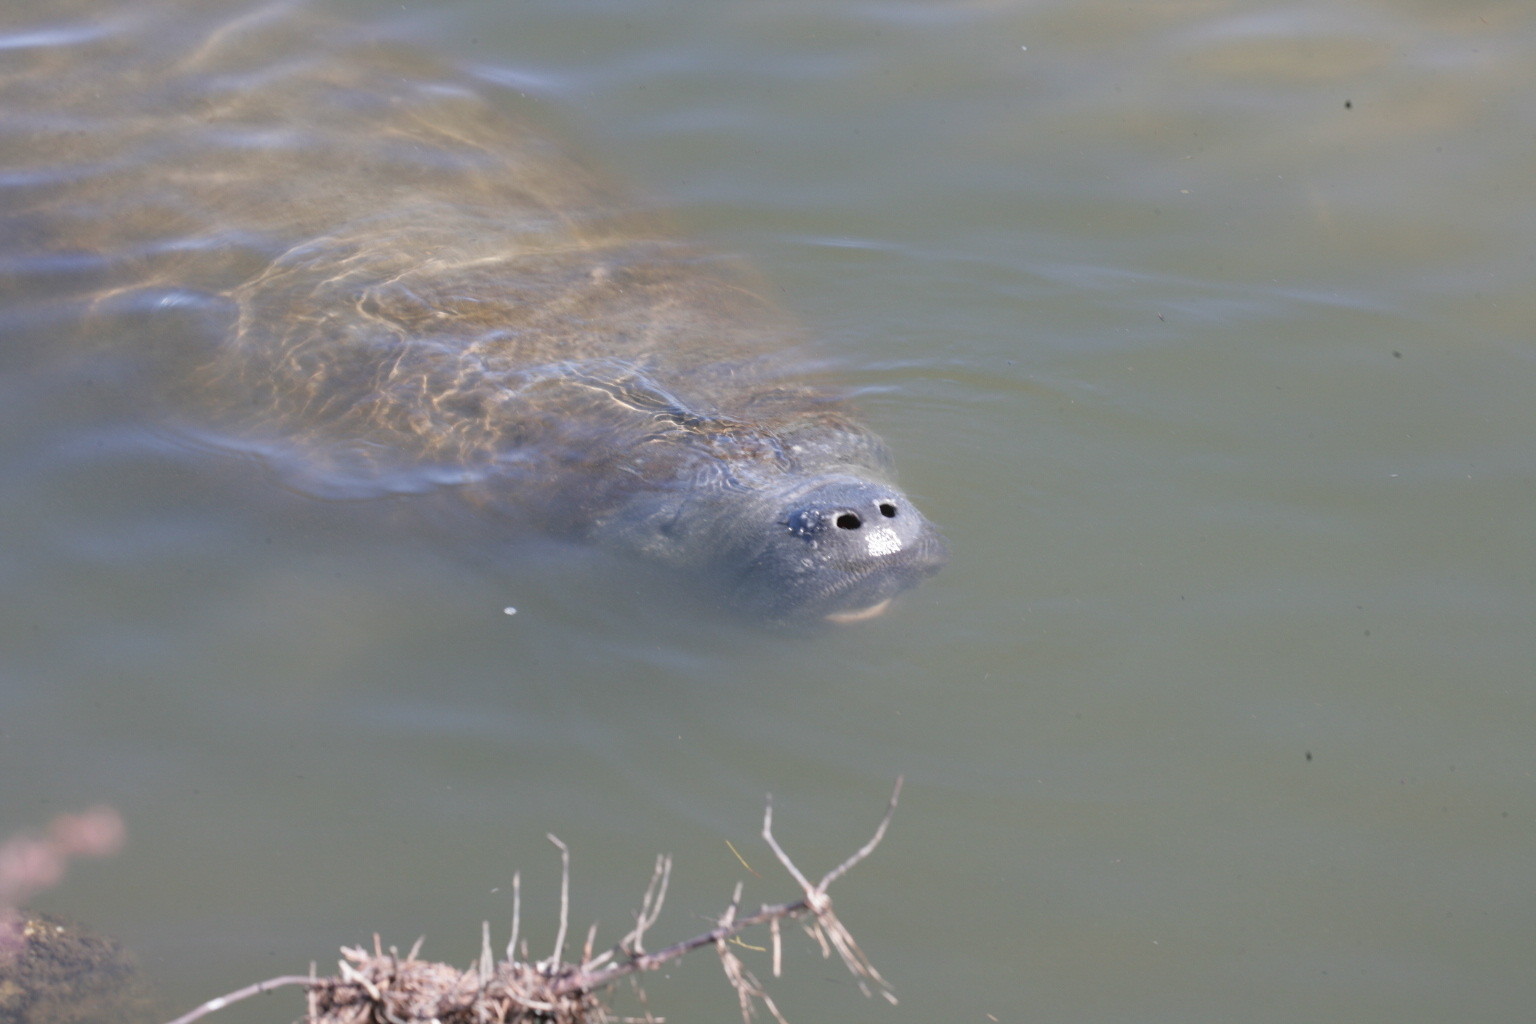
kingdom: Animalia
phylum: Chordata
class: Mammalia
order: Sirenia
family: Trichechidae
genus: Trichechus
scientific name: Trichechus manatus
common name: West indian manatee
